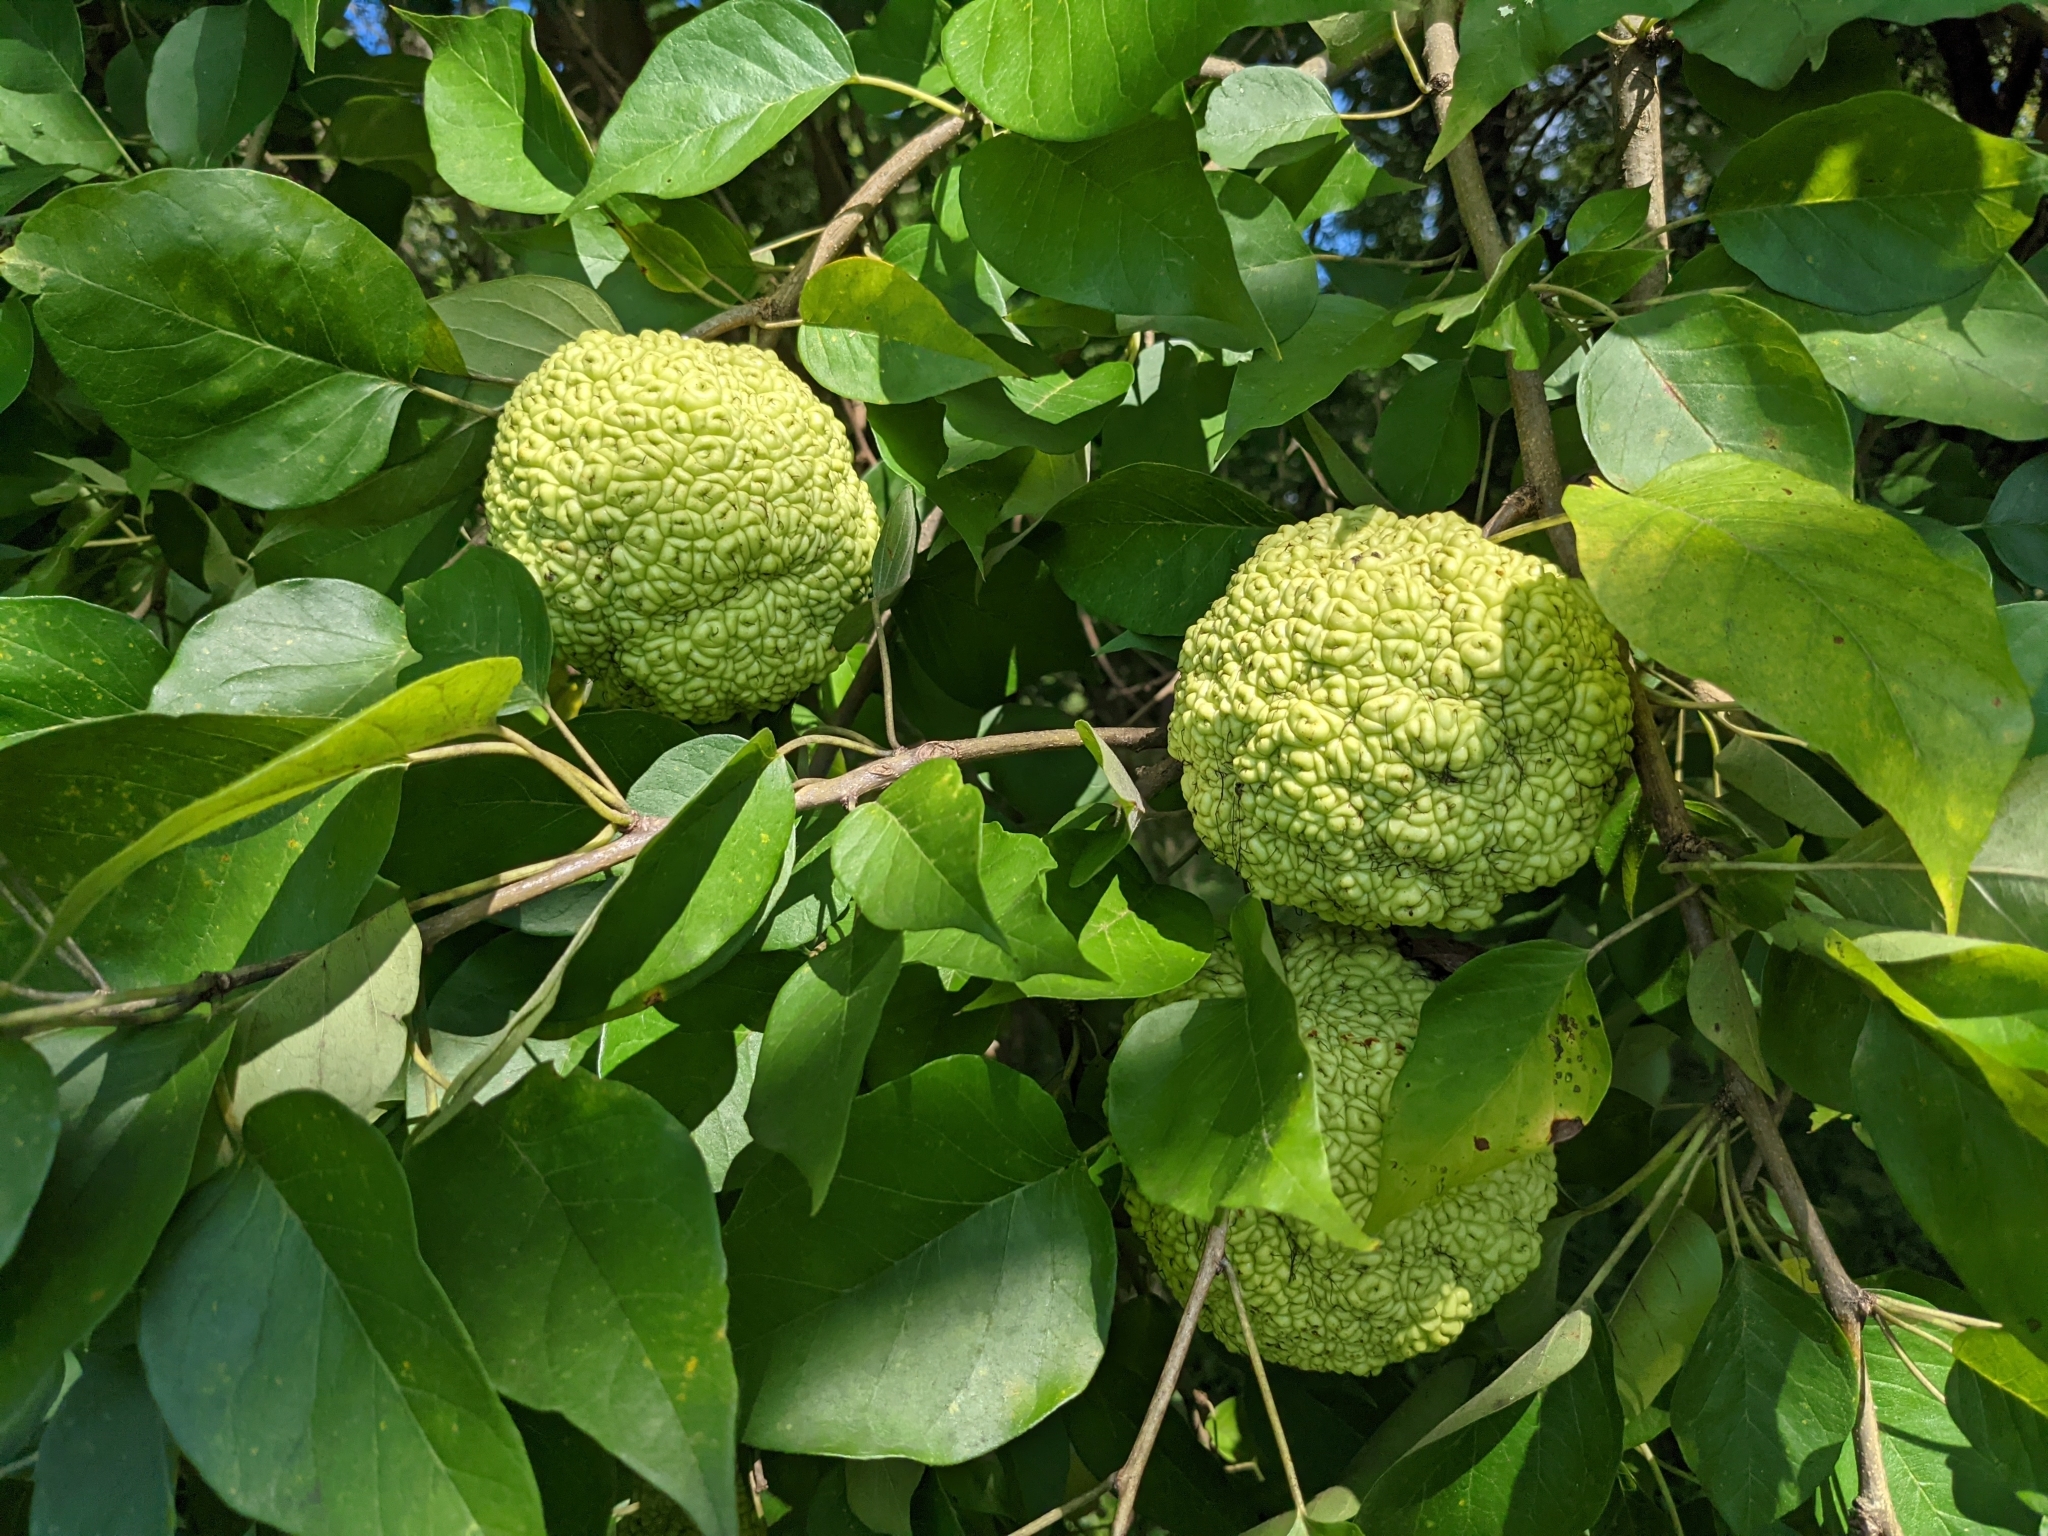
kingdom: Plantae
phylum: Tracheophyta
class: Magnoliopsida
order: Rosales
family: Moraceae
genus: Maclura
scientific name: Maclura pomifera
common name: Osage-orange
